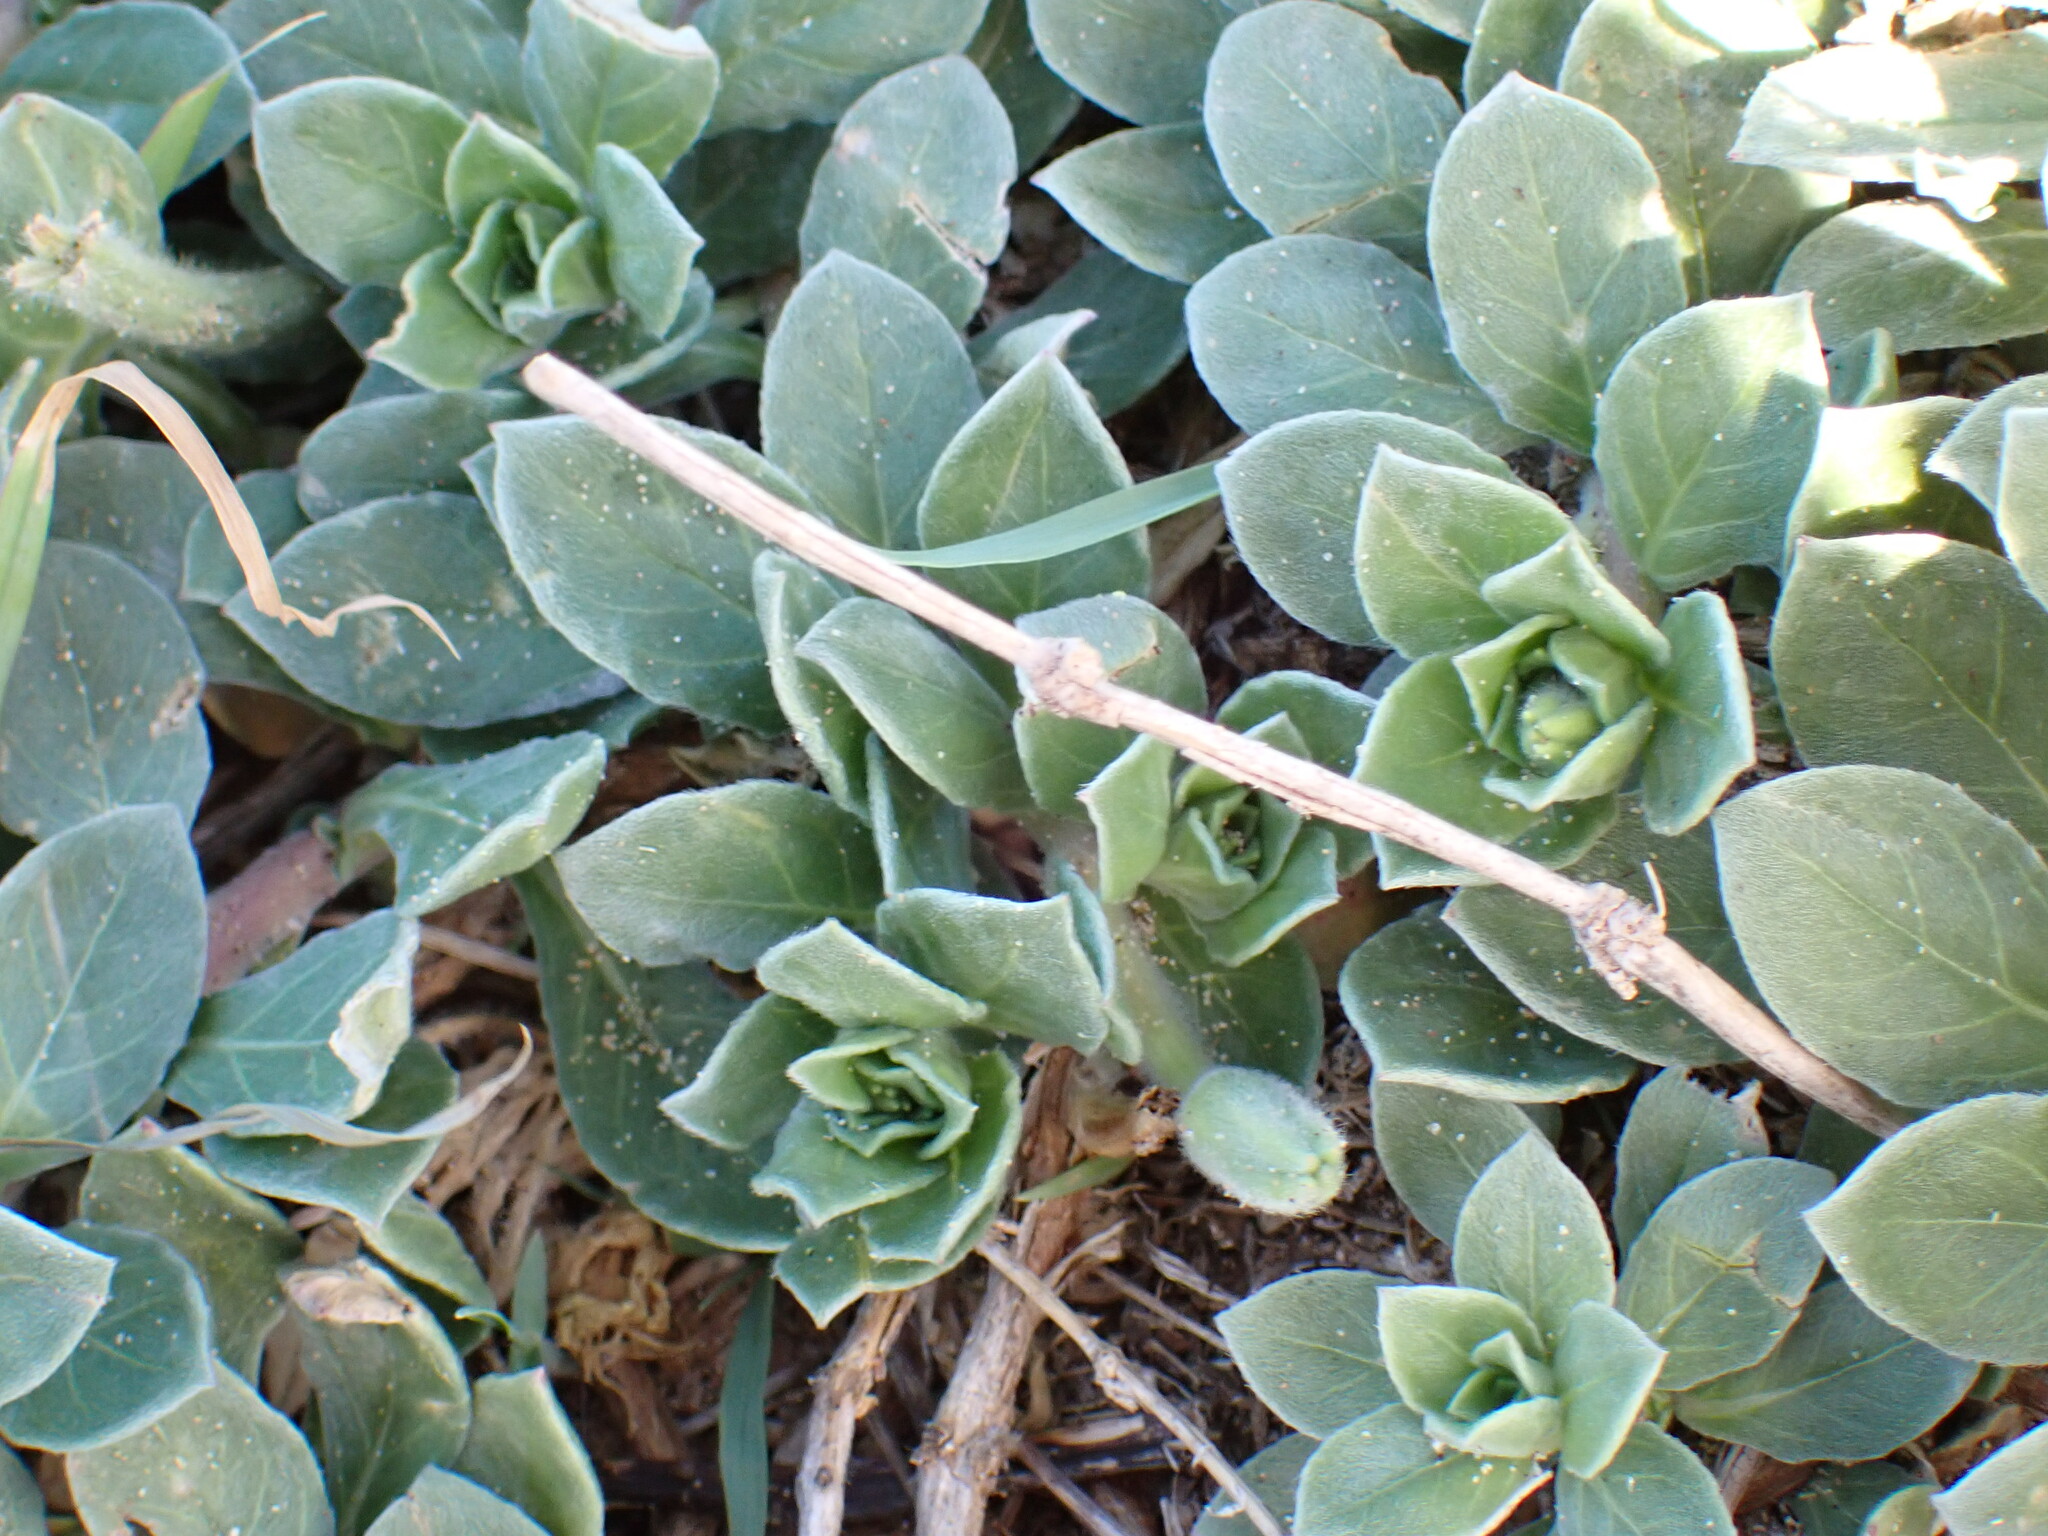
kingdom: Plantae
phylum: Tracheophyta
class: Magnoliopsida
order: Myrtales
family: Onagraceae
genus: Oenothera
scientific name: Oenothera drummondii
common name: Beach evening-primrose
